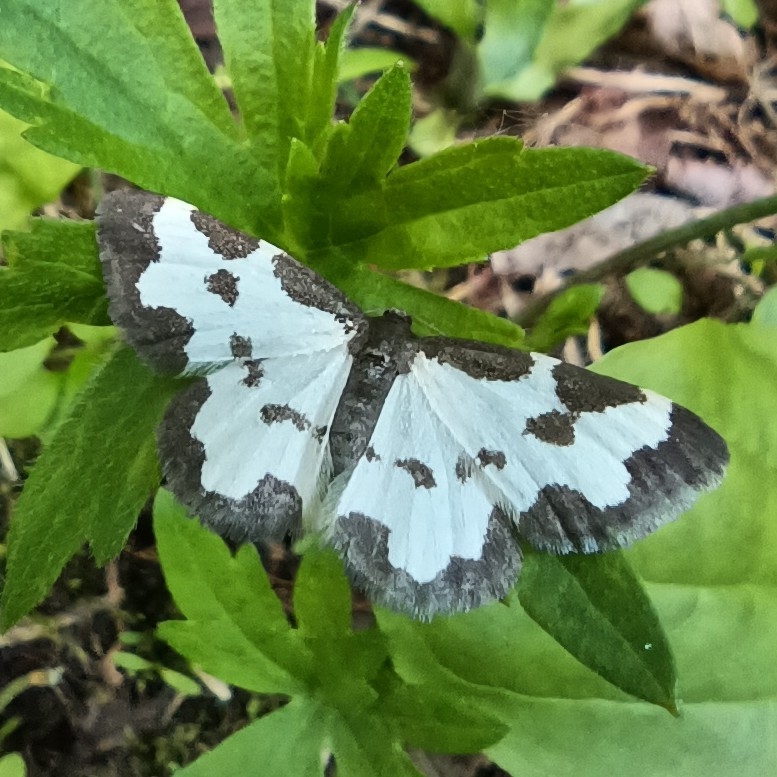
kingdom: Animalia
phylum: Arthropoda
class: Insecta
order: Lepidoptera
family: Geometridae
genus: Lomaspilis
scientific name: Lomaspilis marginata
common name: Clouded border
